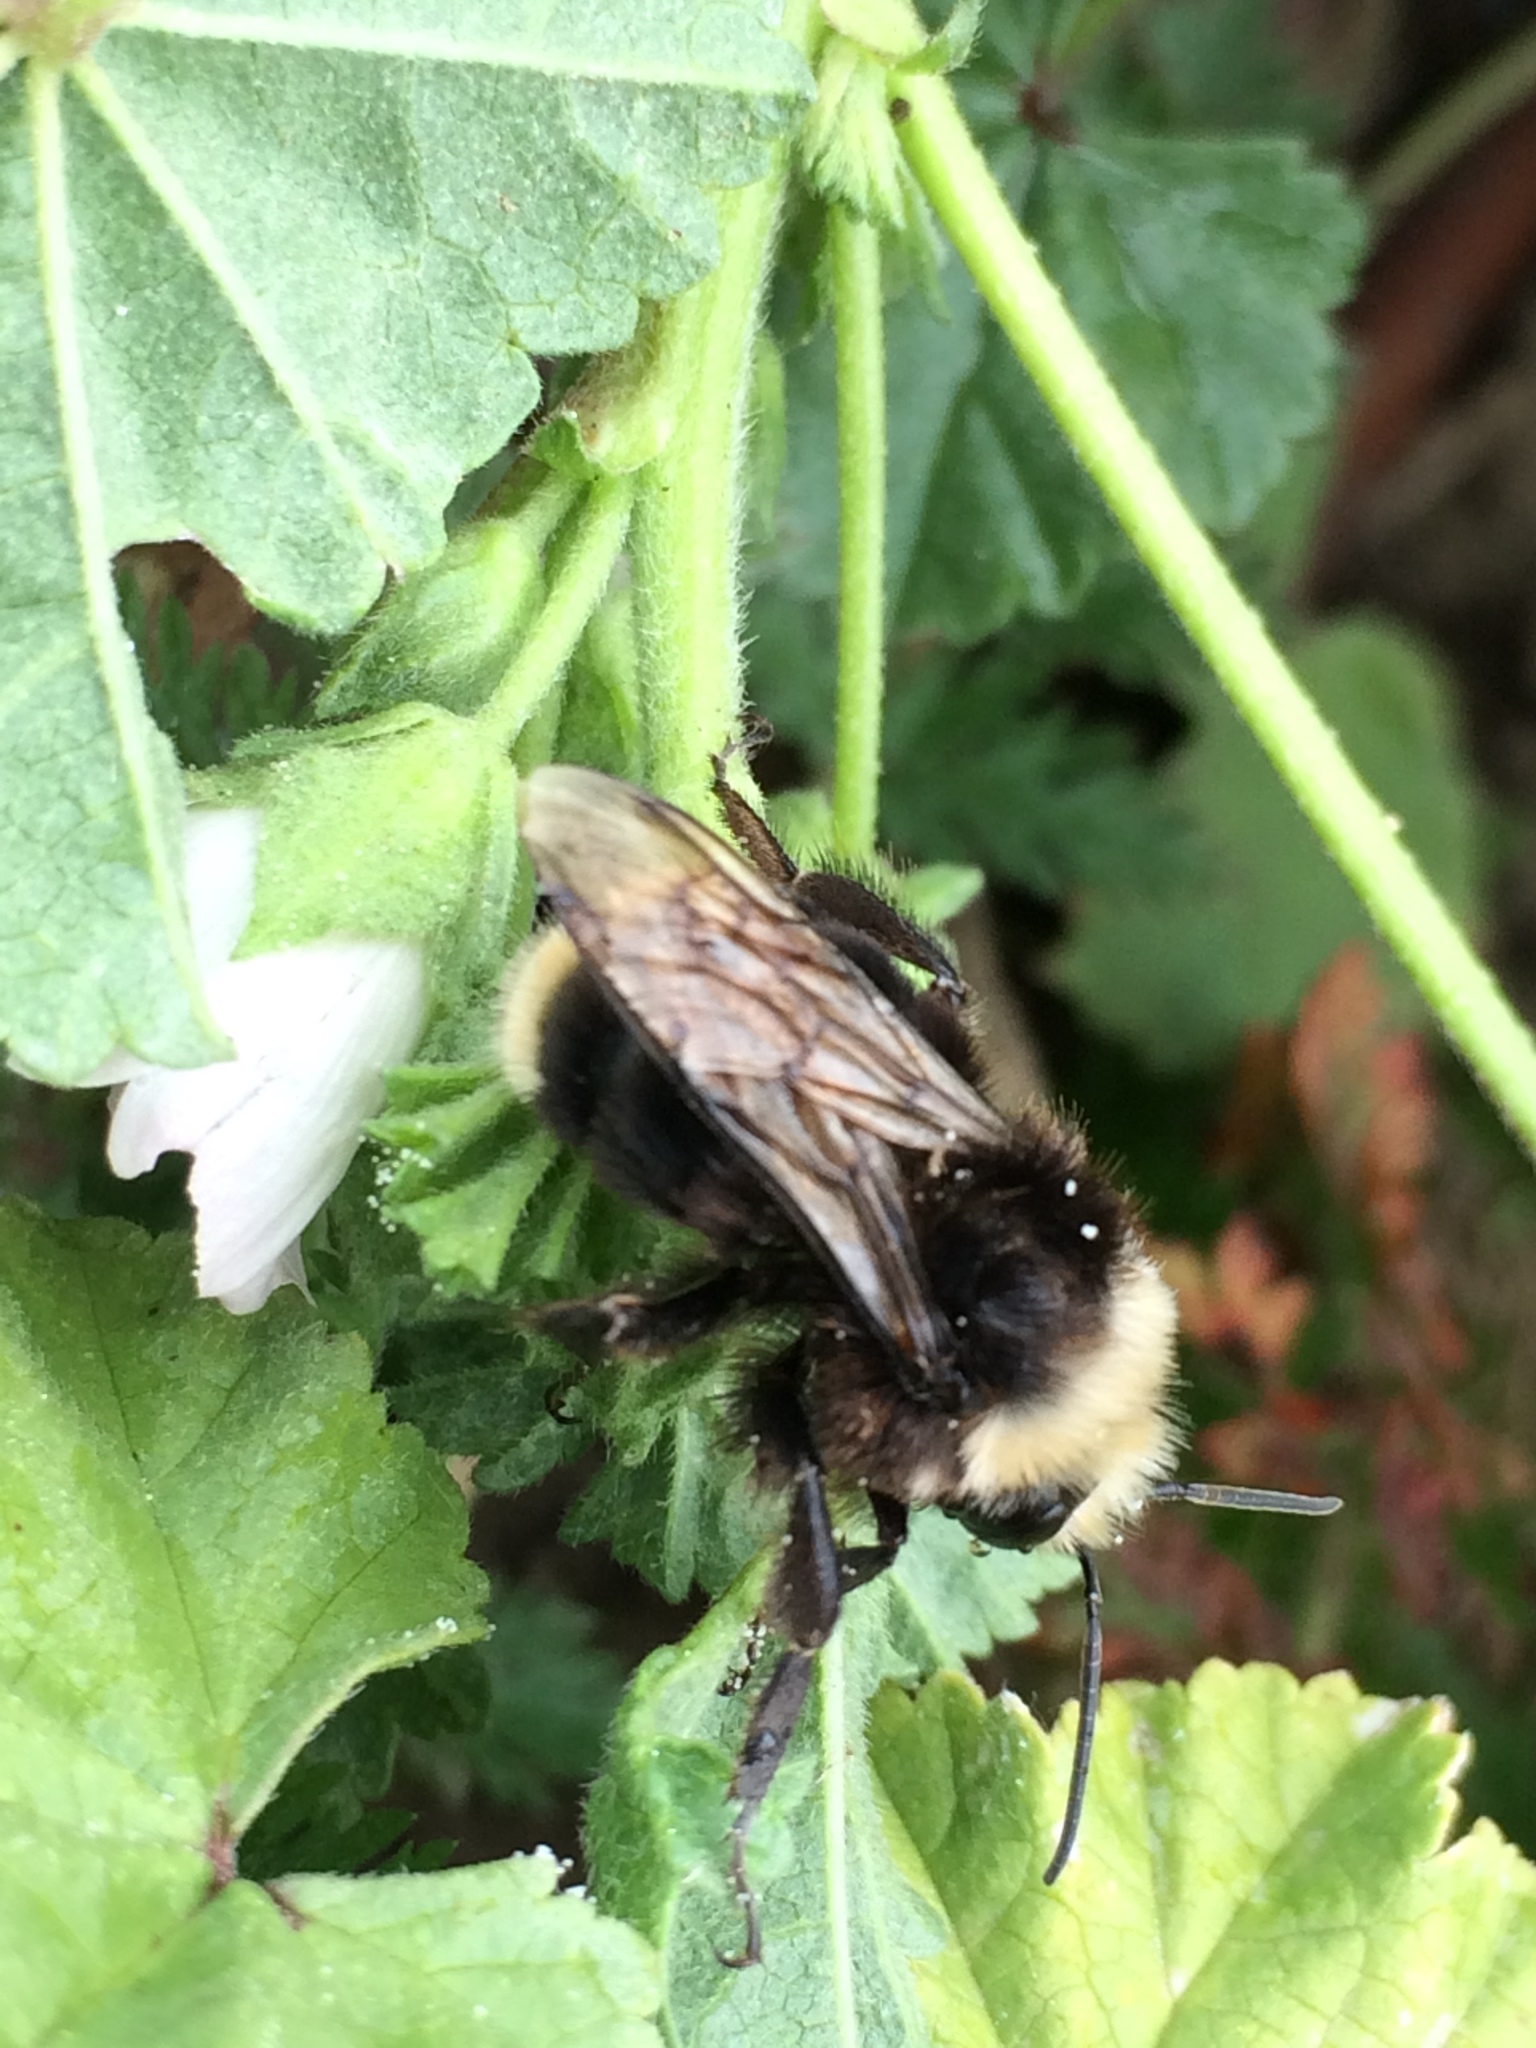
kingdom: Animalia
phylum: Arthropoda
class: Insecta
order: Hymenoptera
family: Apidae
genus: Bombus
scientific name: Bombus vosnesenskii
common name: Vosnesensky bumble bee
